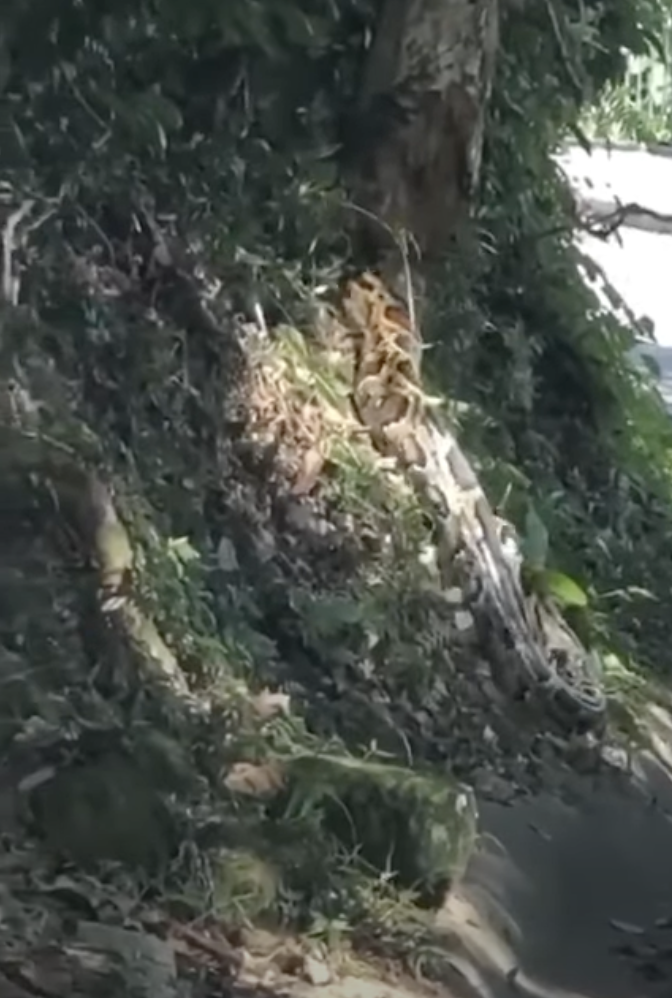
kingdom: Animalia
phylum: Chordata
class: Squamata
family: Pythonidae
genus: Python
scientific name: Python bivittatus
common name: Burmese python
